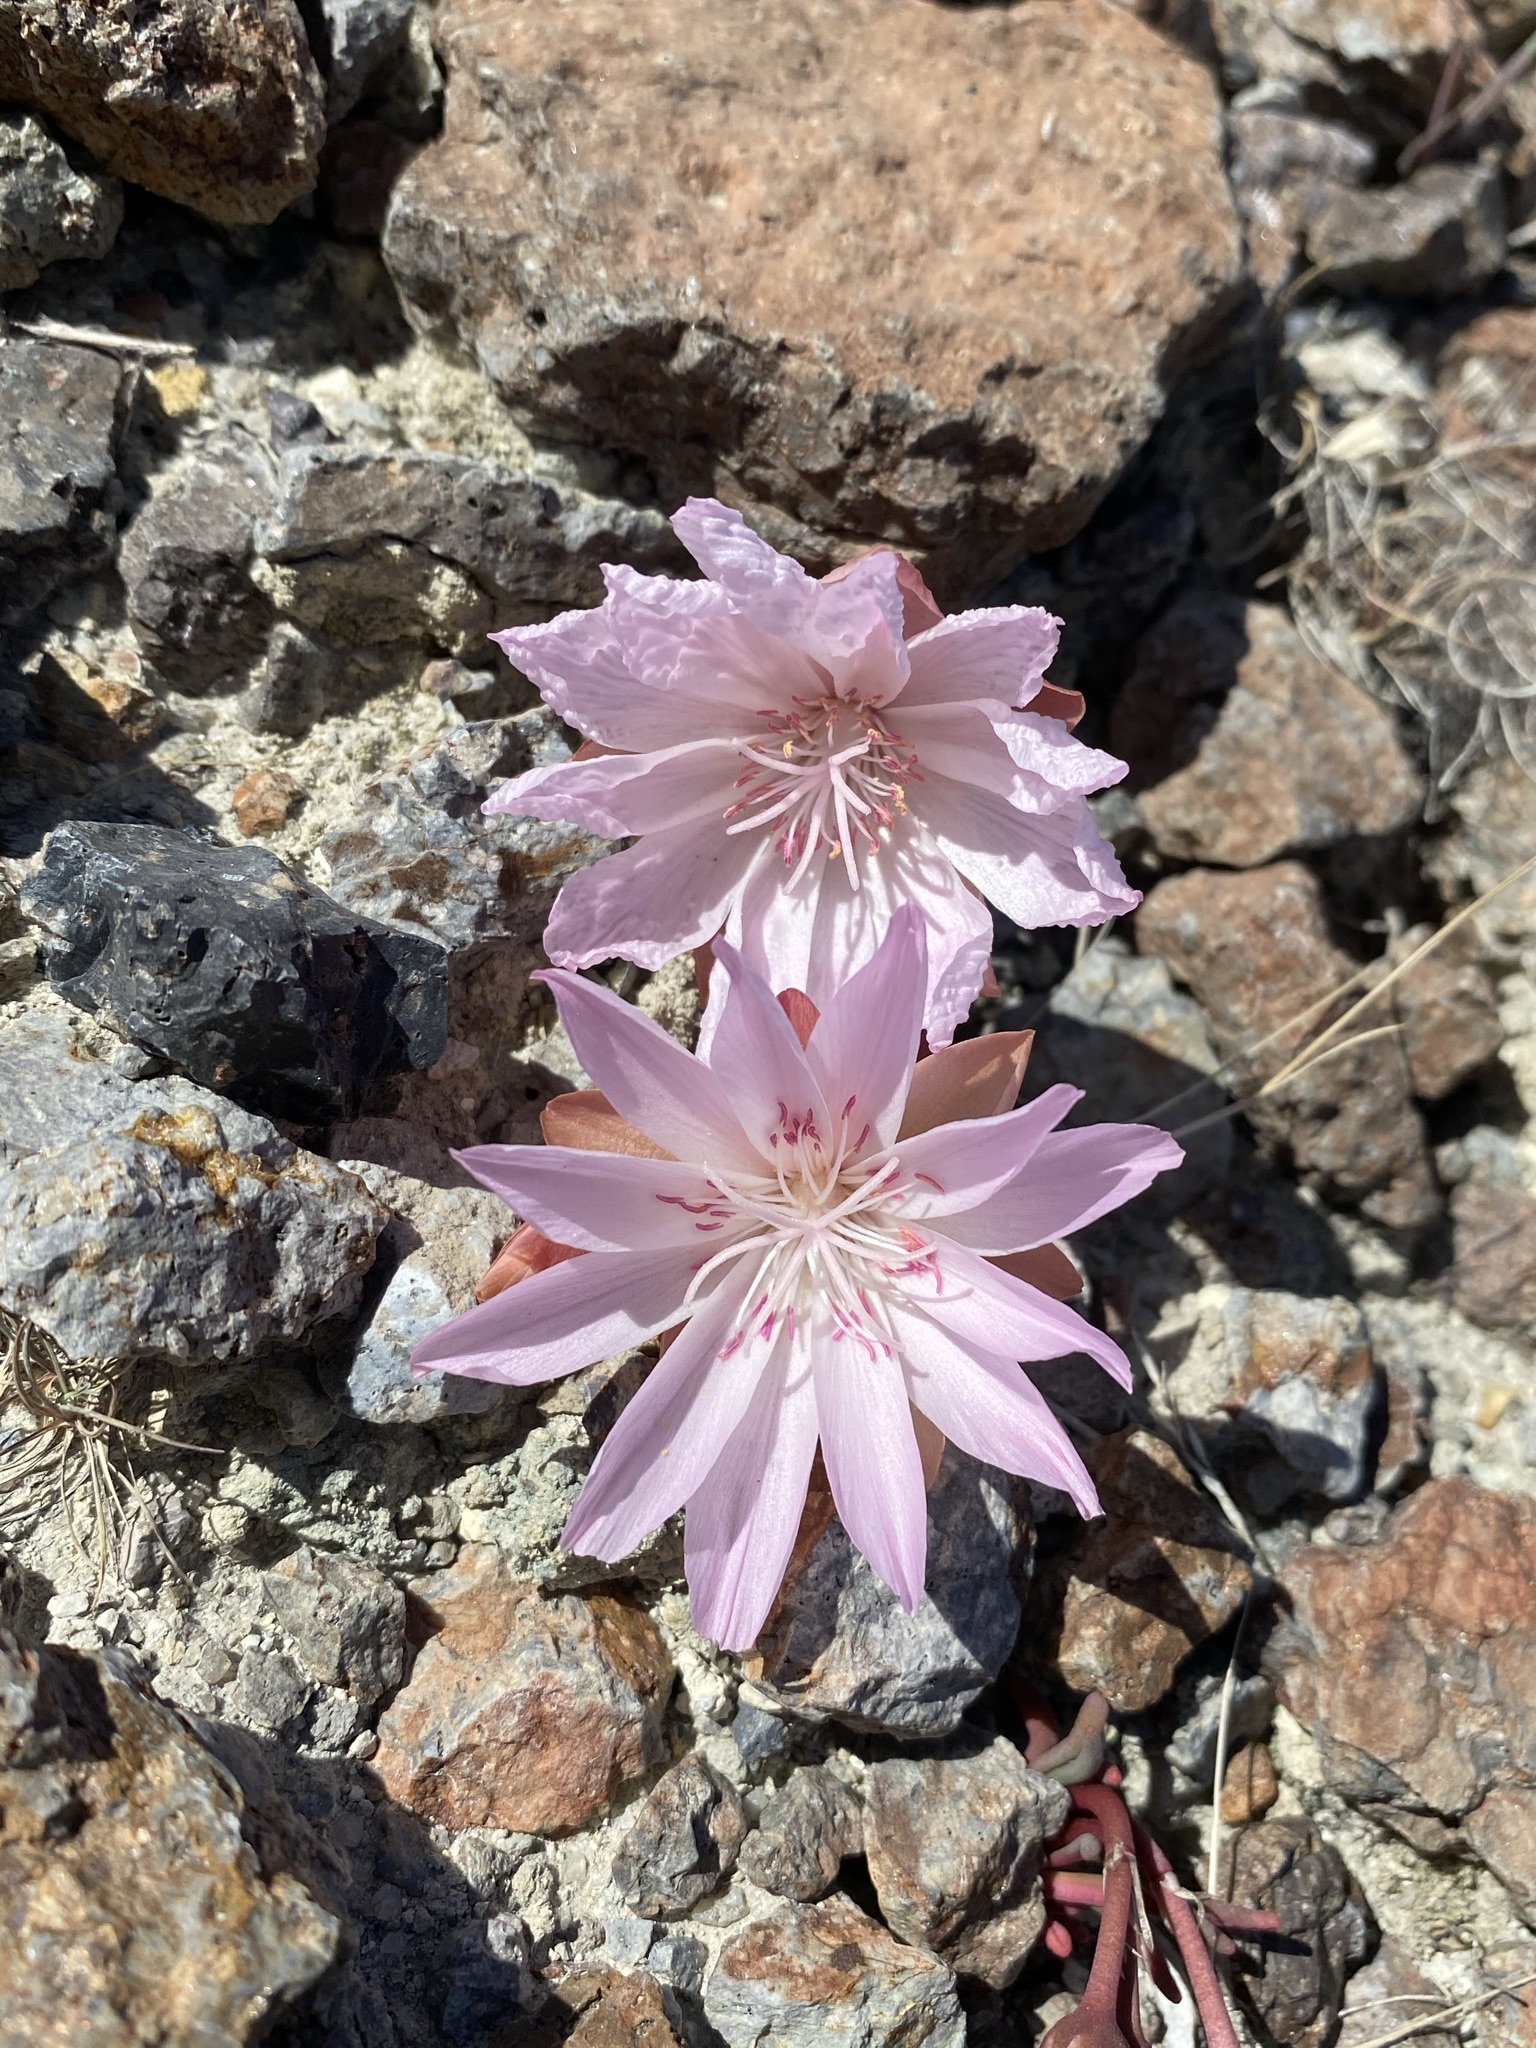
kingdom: Plantae
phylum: Tracheophyta
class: Magnoliopsida
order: Caryophyllales
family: Montiaceae
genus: Lewisia
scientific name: Lewisia rediviva
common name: Bitter-root
